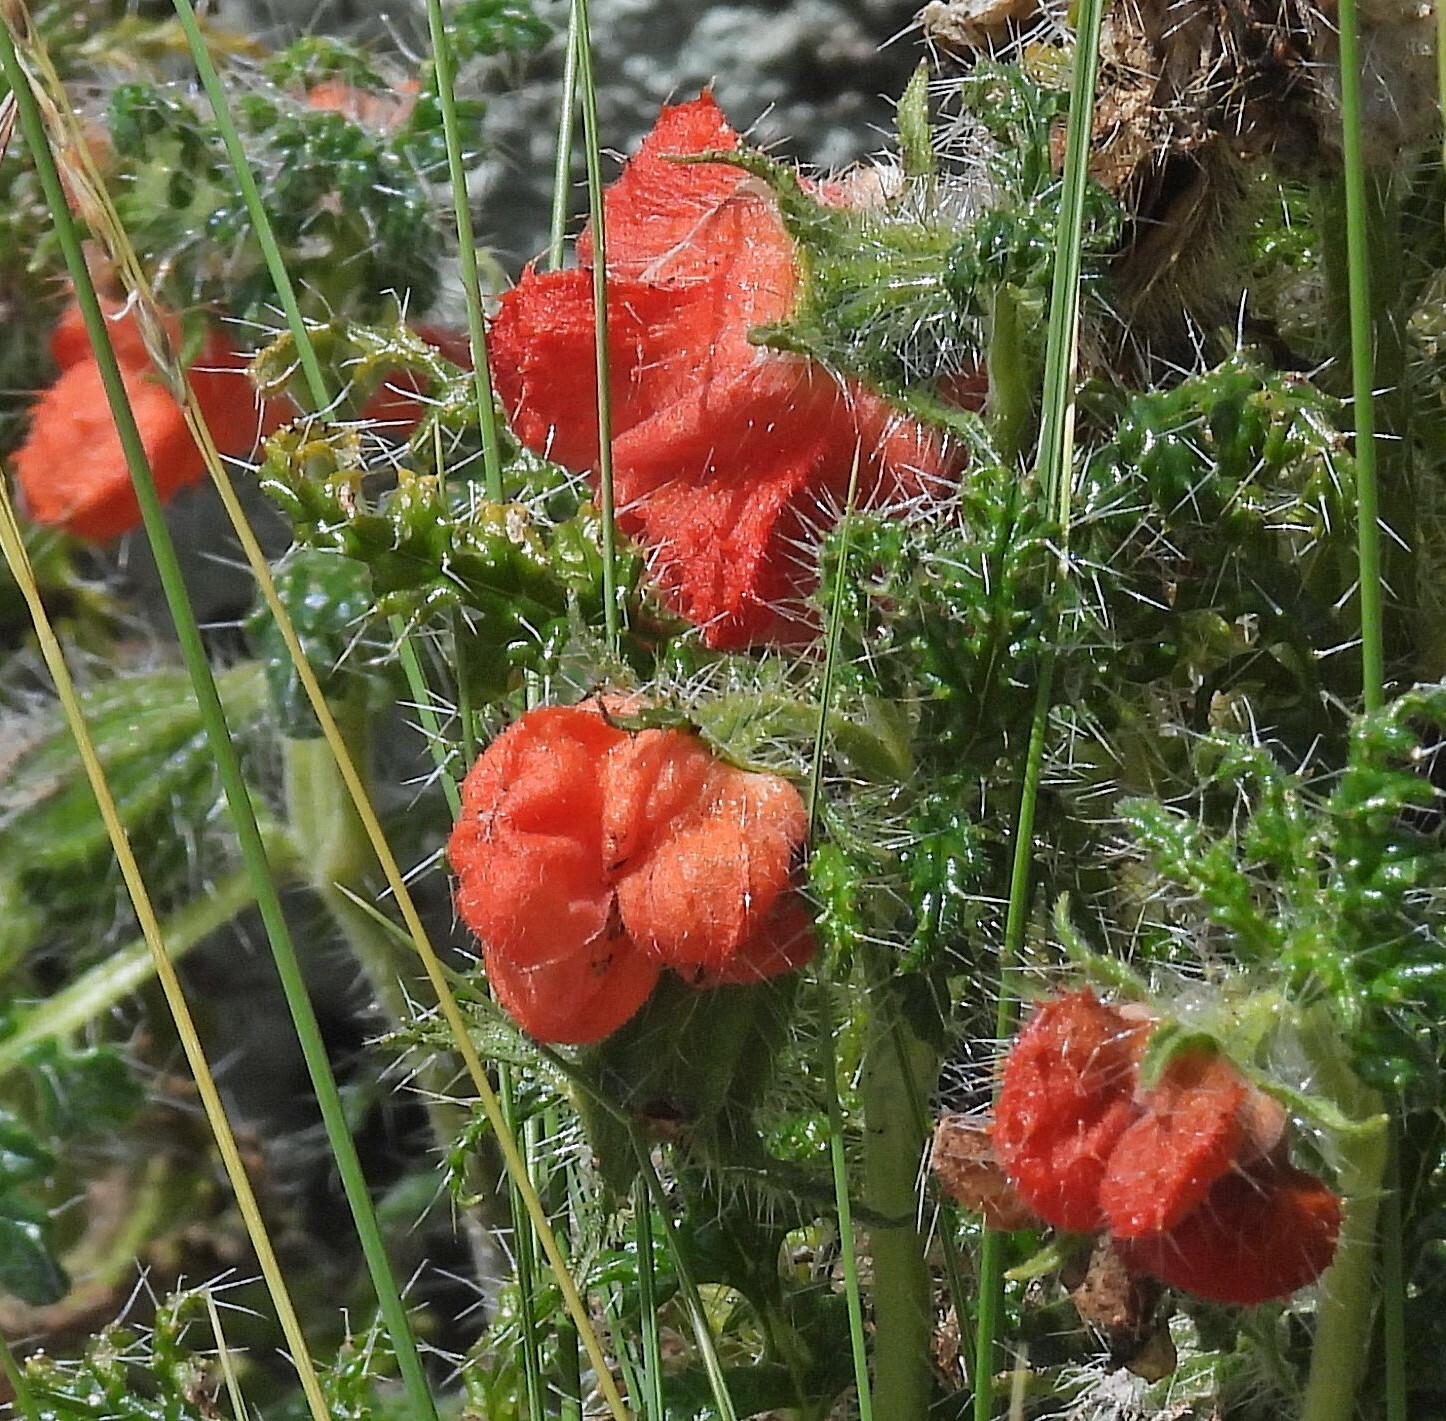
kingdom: Plantae
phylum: Tracheophyta
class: Magnoliopsida
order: Cornales
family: Loasaceae
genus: Caiophora
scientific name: Caiophora chuquitensis
